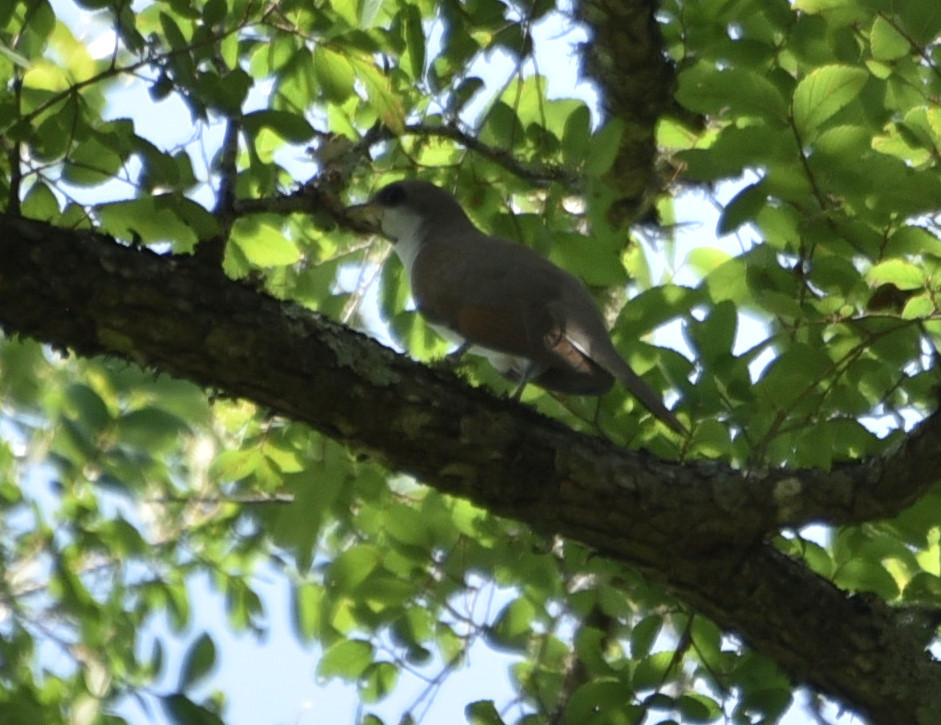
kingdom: Animalia
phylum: Chordata
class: Aves
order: Cuculiformes
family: Cuculidae
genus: Coccyzus
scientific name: Coccyzus americanus
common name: Yellow-billed cuckoo
